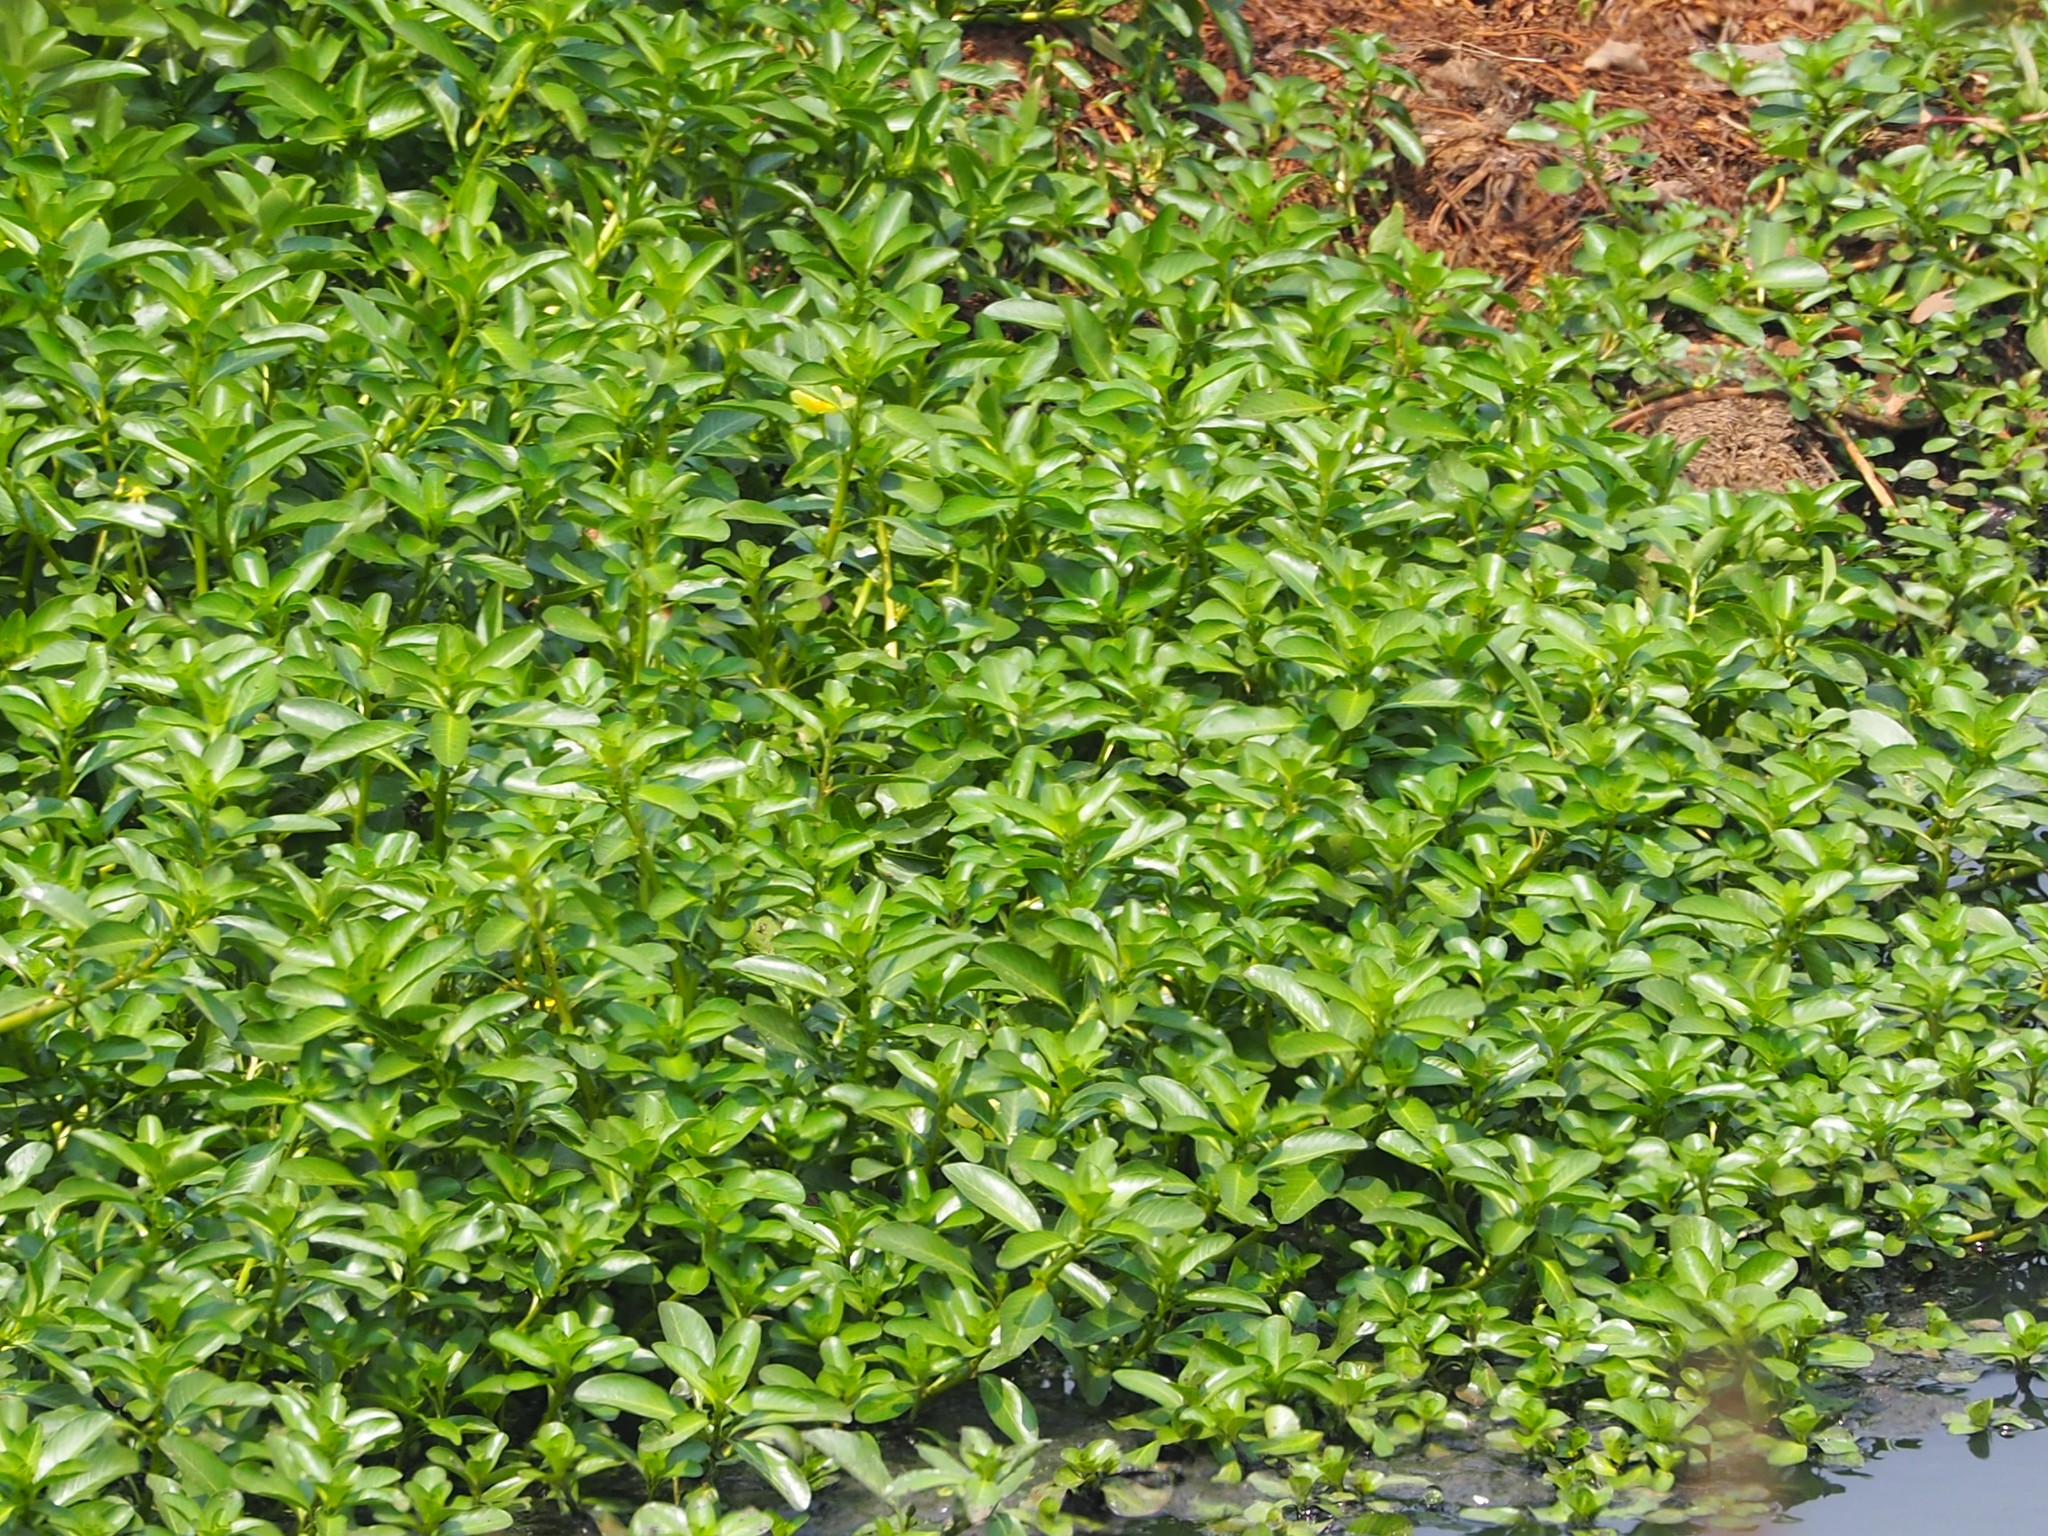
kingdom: Plantae
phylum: Tracheophyta
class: Magnoliopsida
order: Myrtales
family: Onagraceae
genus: Ludwigia
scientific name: Ludwigia taiwanensis
